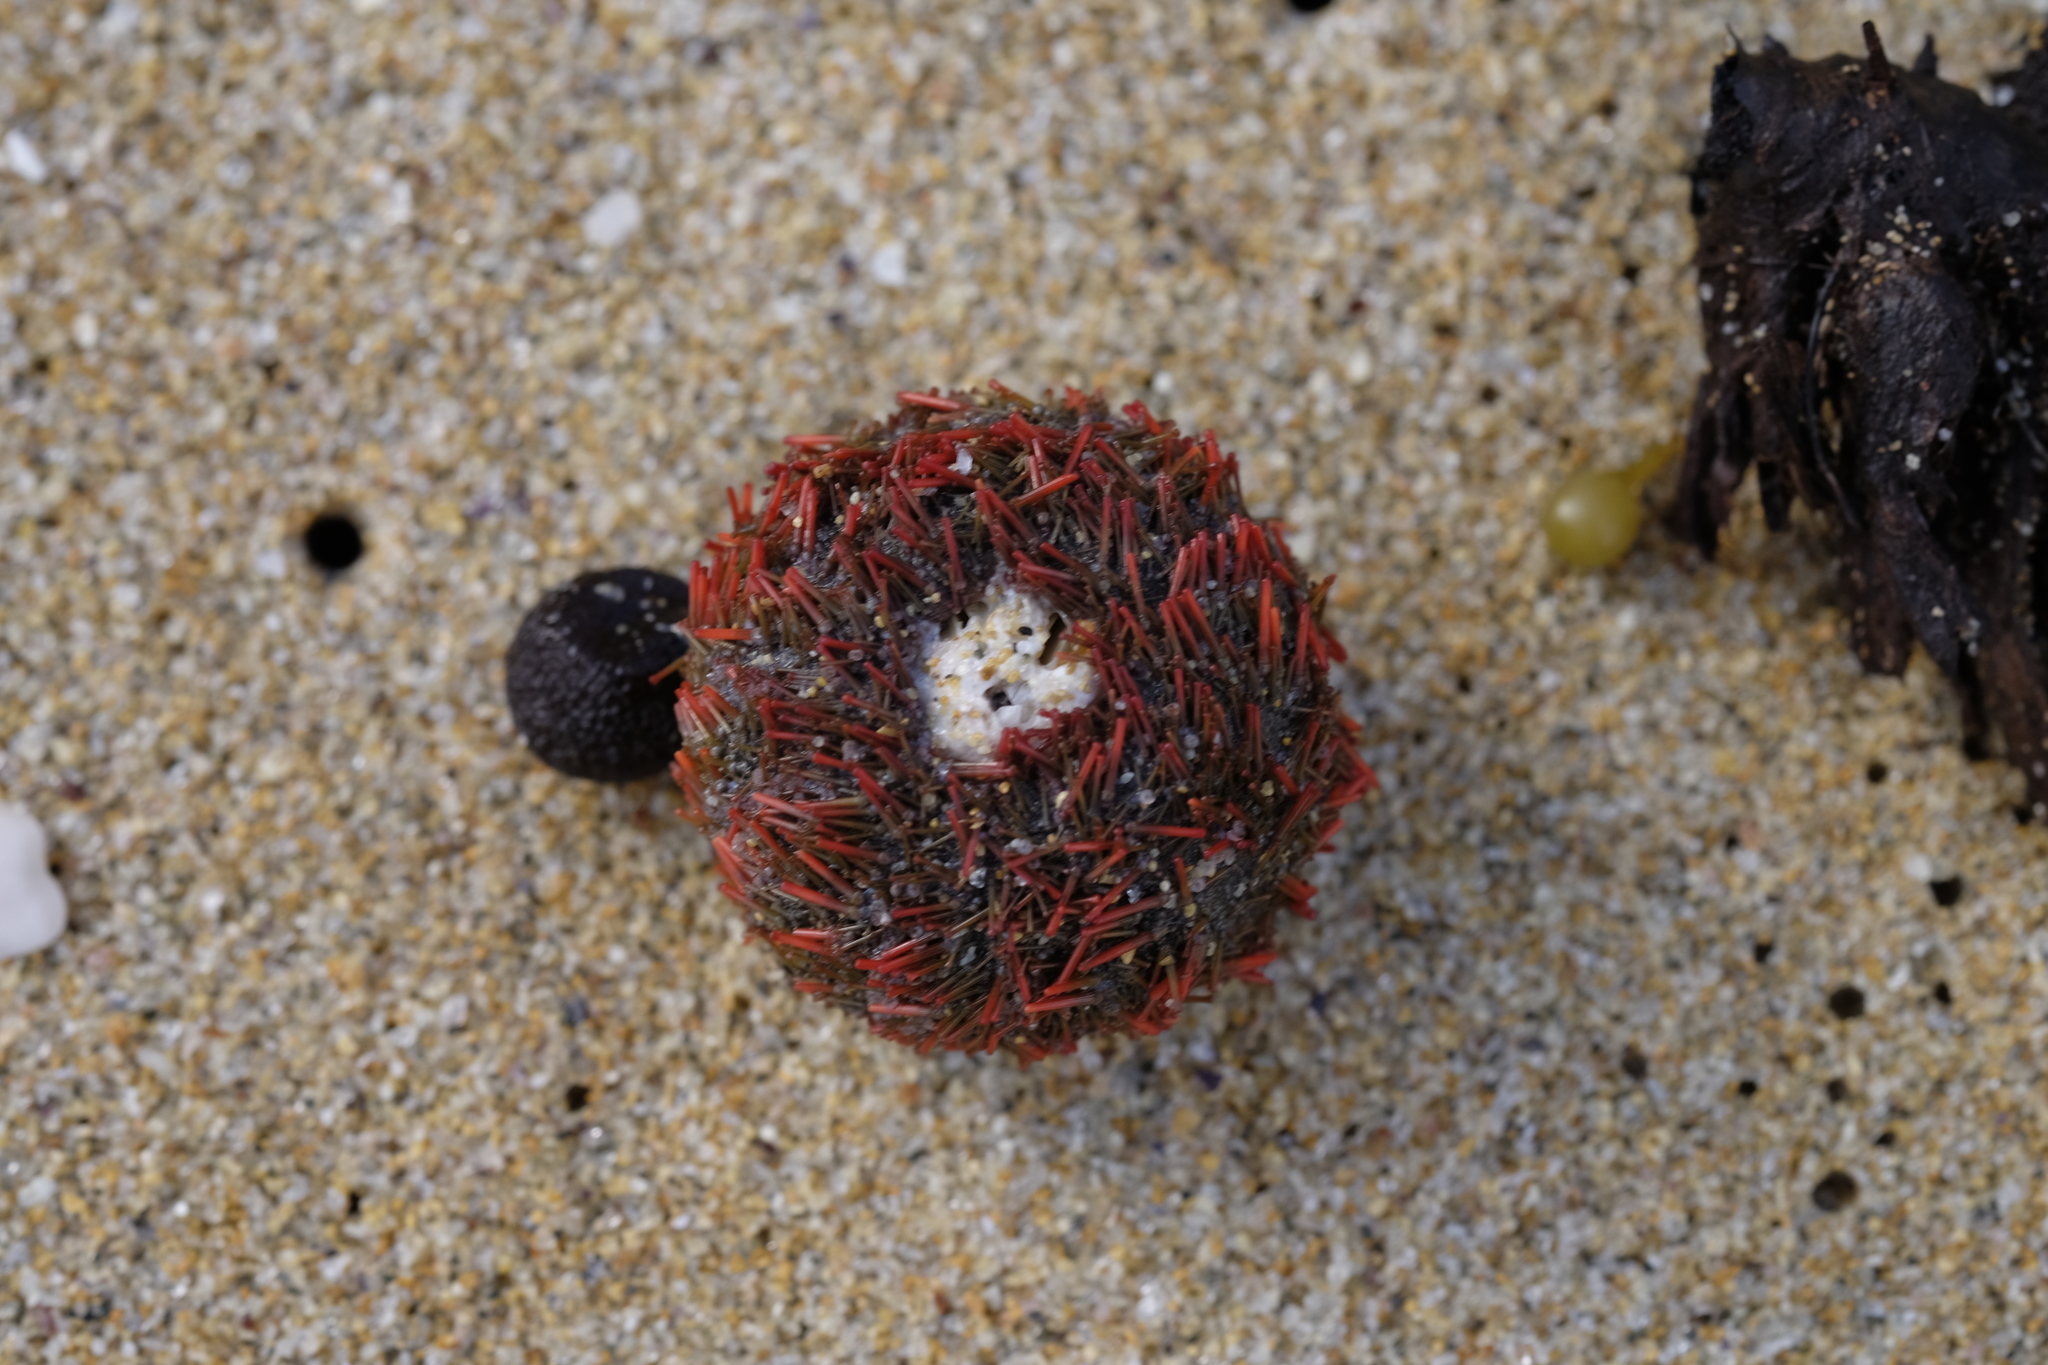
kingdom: Animalia
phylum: Echinodermata
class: Echinoidea
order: Camarodonta
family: Temnopleuridae
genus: Holopneustes
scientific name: Holopneustes porosissimus
